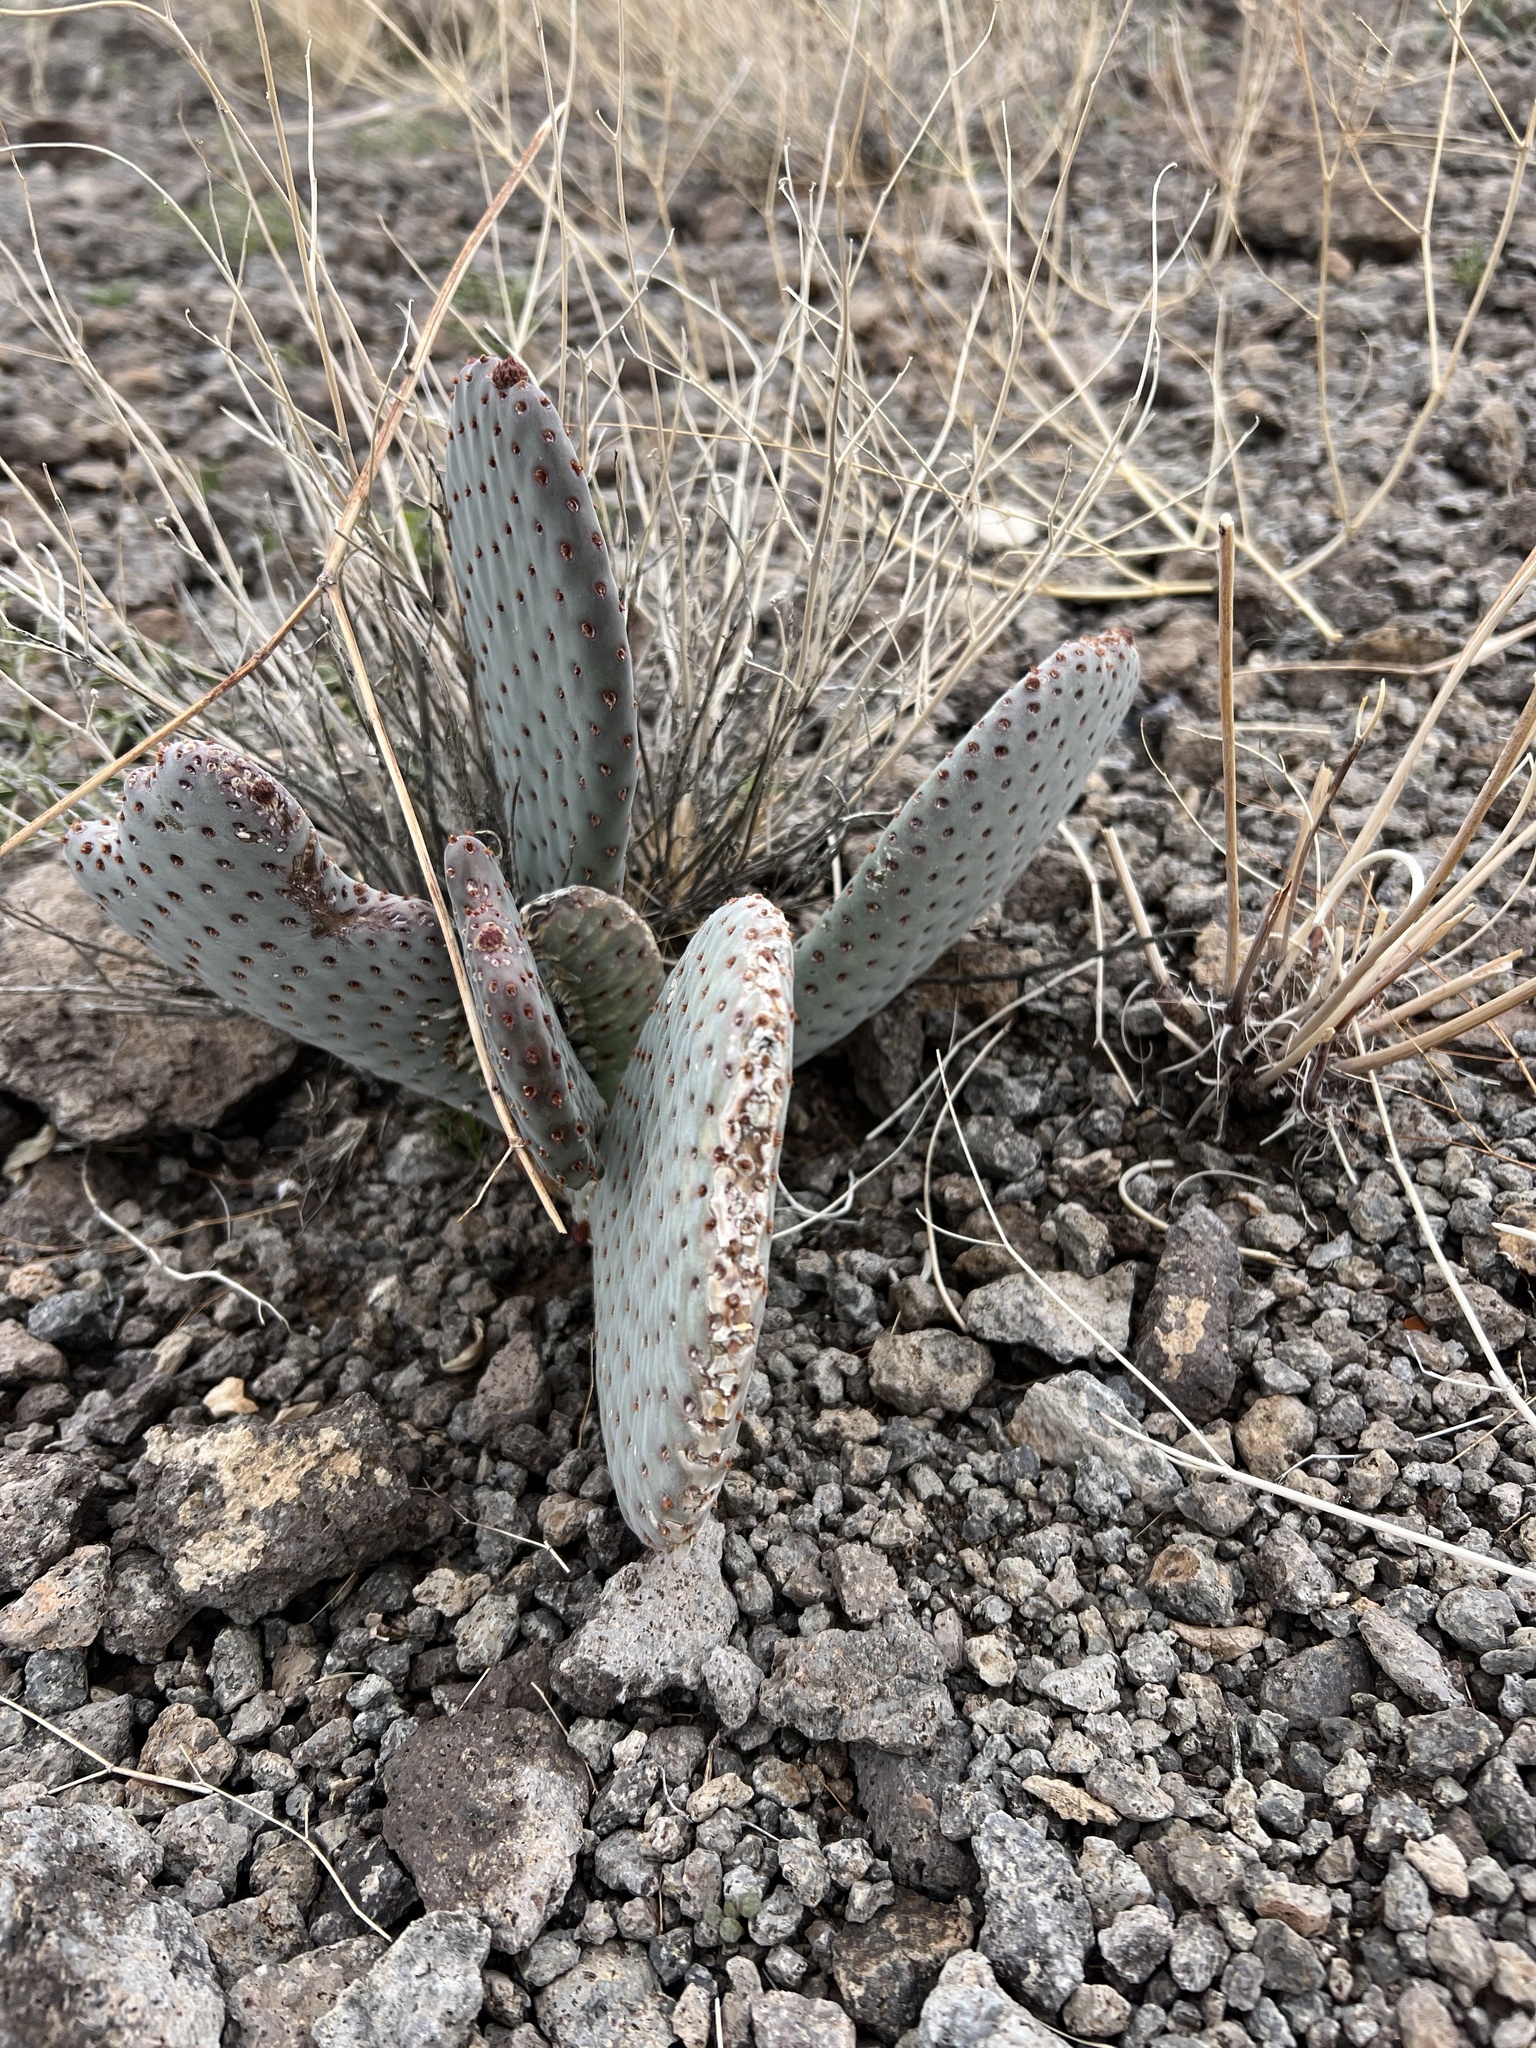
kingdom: Plantae
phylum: Tracheophyta
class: Magnoliopsida
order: Caryophyllales
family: Cactaceae
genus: Opuntia
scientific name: Opuntia basilaris
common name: Beavertail prickly-pear
